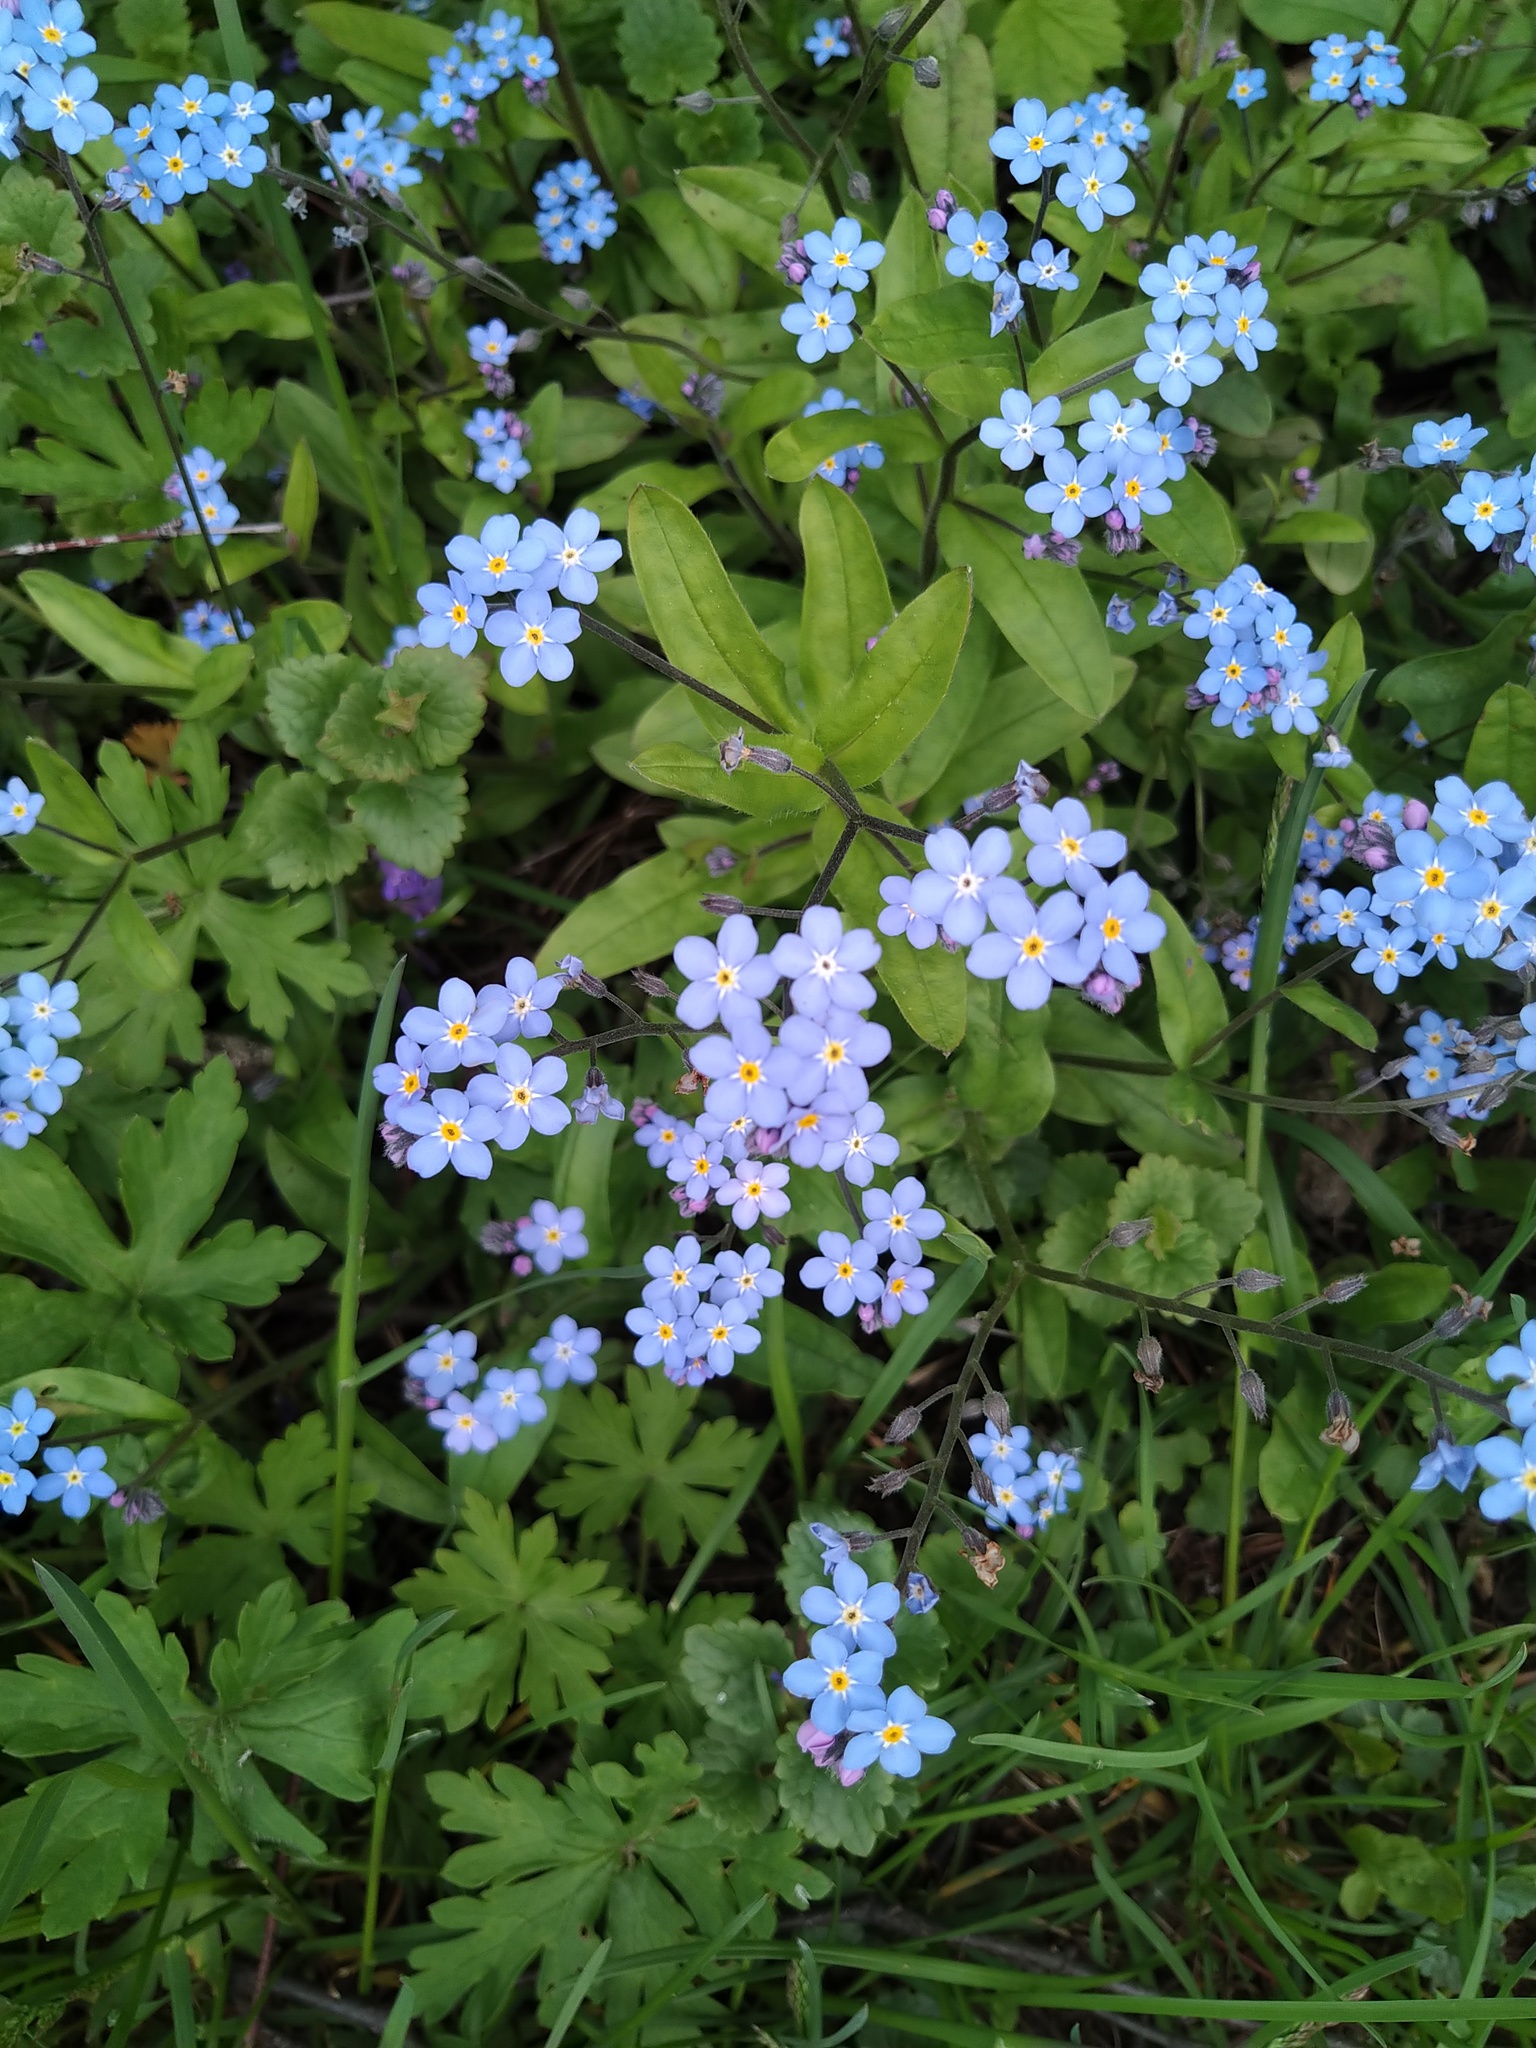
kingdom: Plantae
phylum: Tracheophyta
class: Magnoliopsida
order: Boraginales
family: Boraginaceae
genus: Myosotis
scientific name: Myosotis sylvatica
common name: Wood forget-me-not
